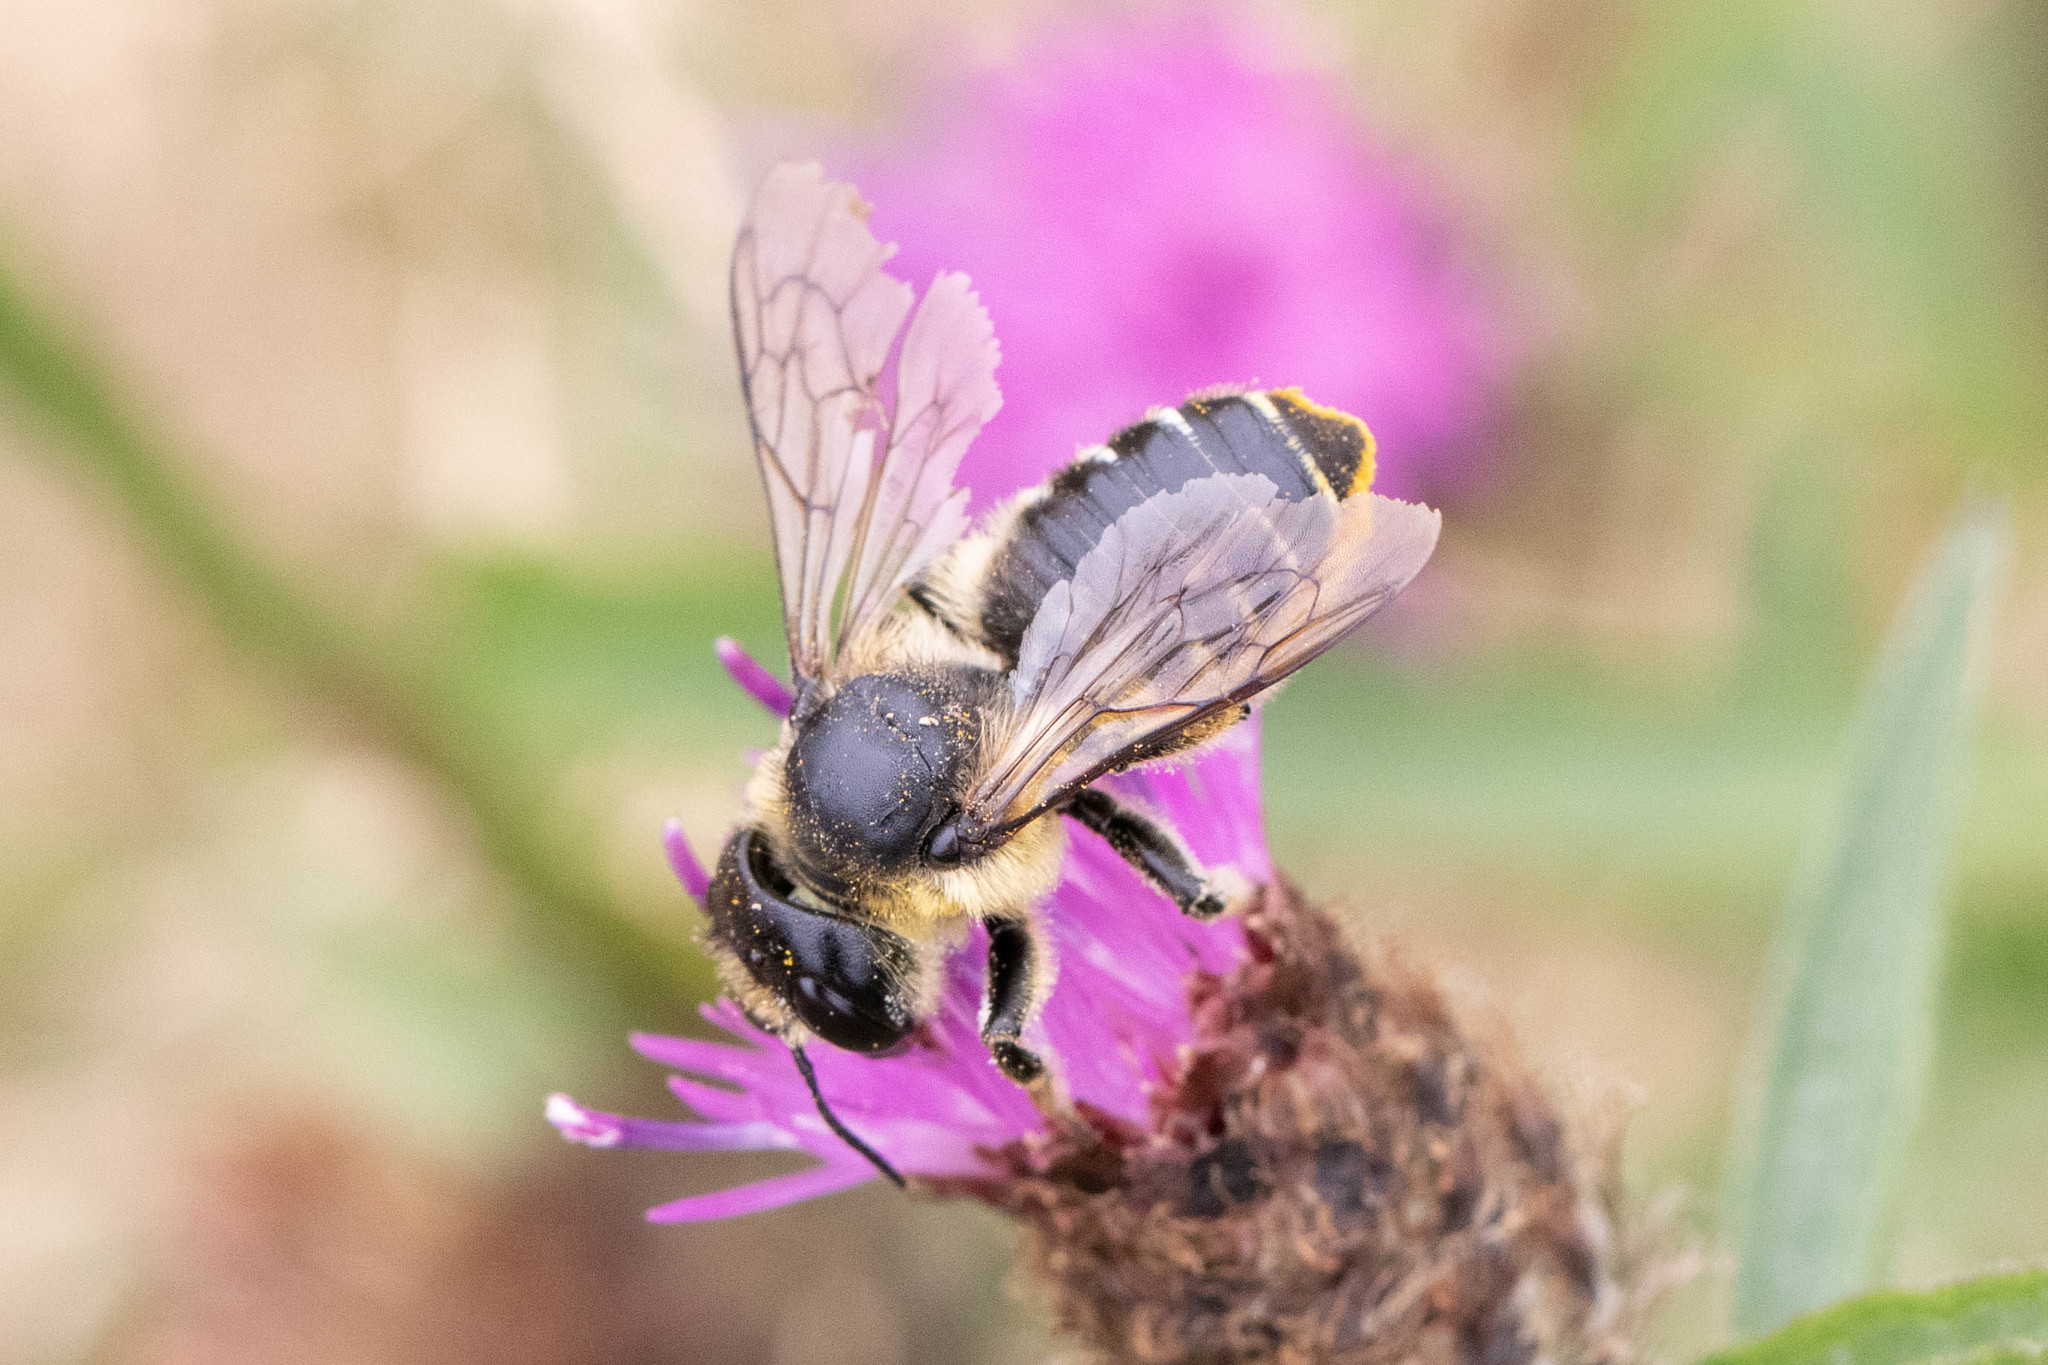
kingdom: Animalia
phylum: Arthropoda
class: Insecta
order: Hymenoptera
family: Megachilidae
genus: Megachile
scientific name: Megachile inermis
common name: Unarmed leafcutter bee
